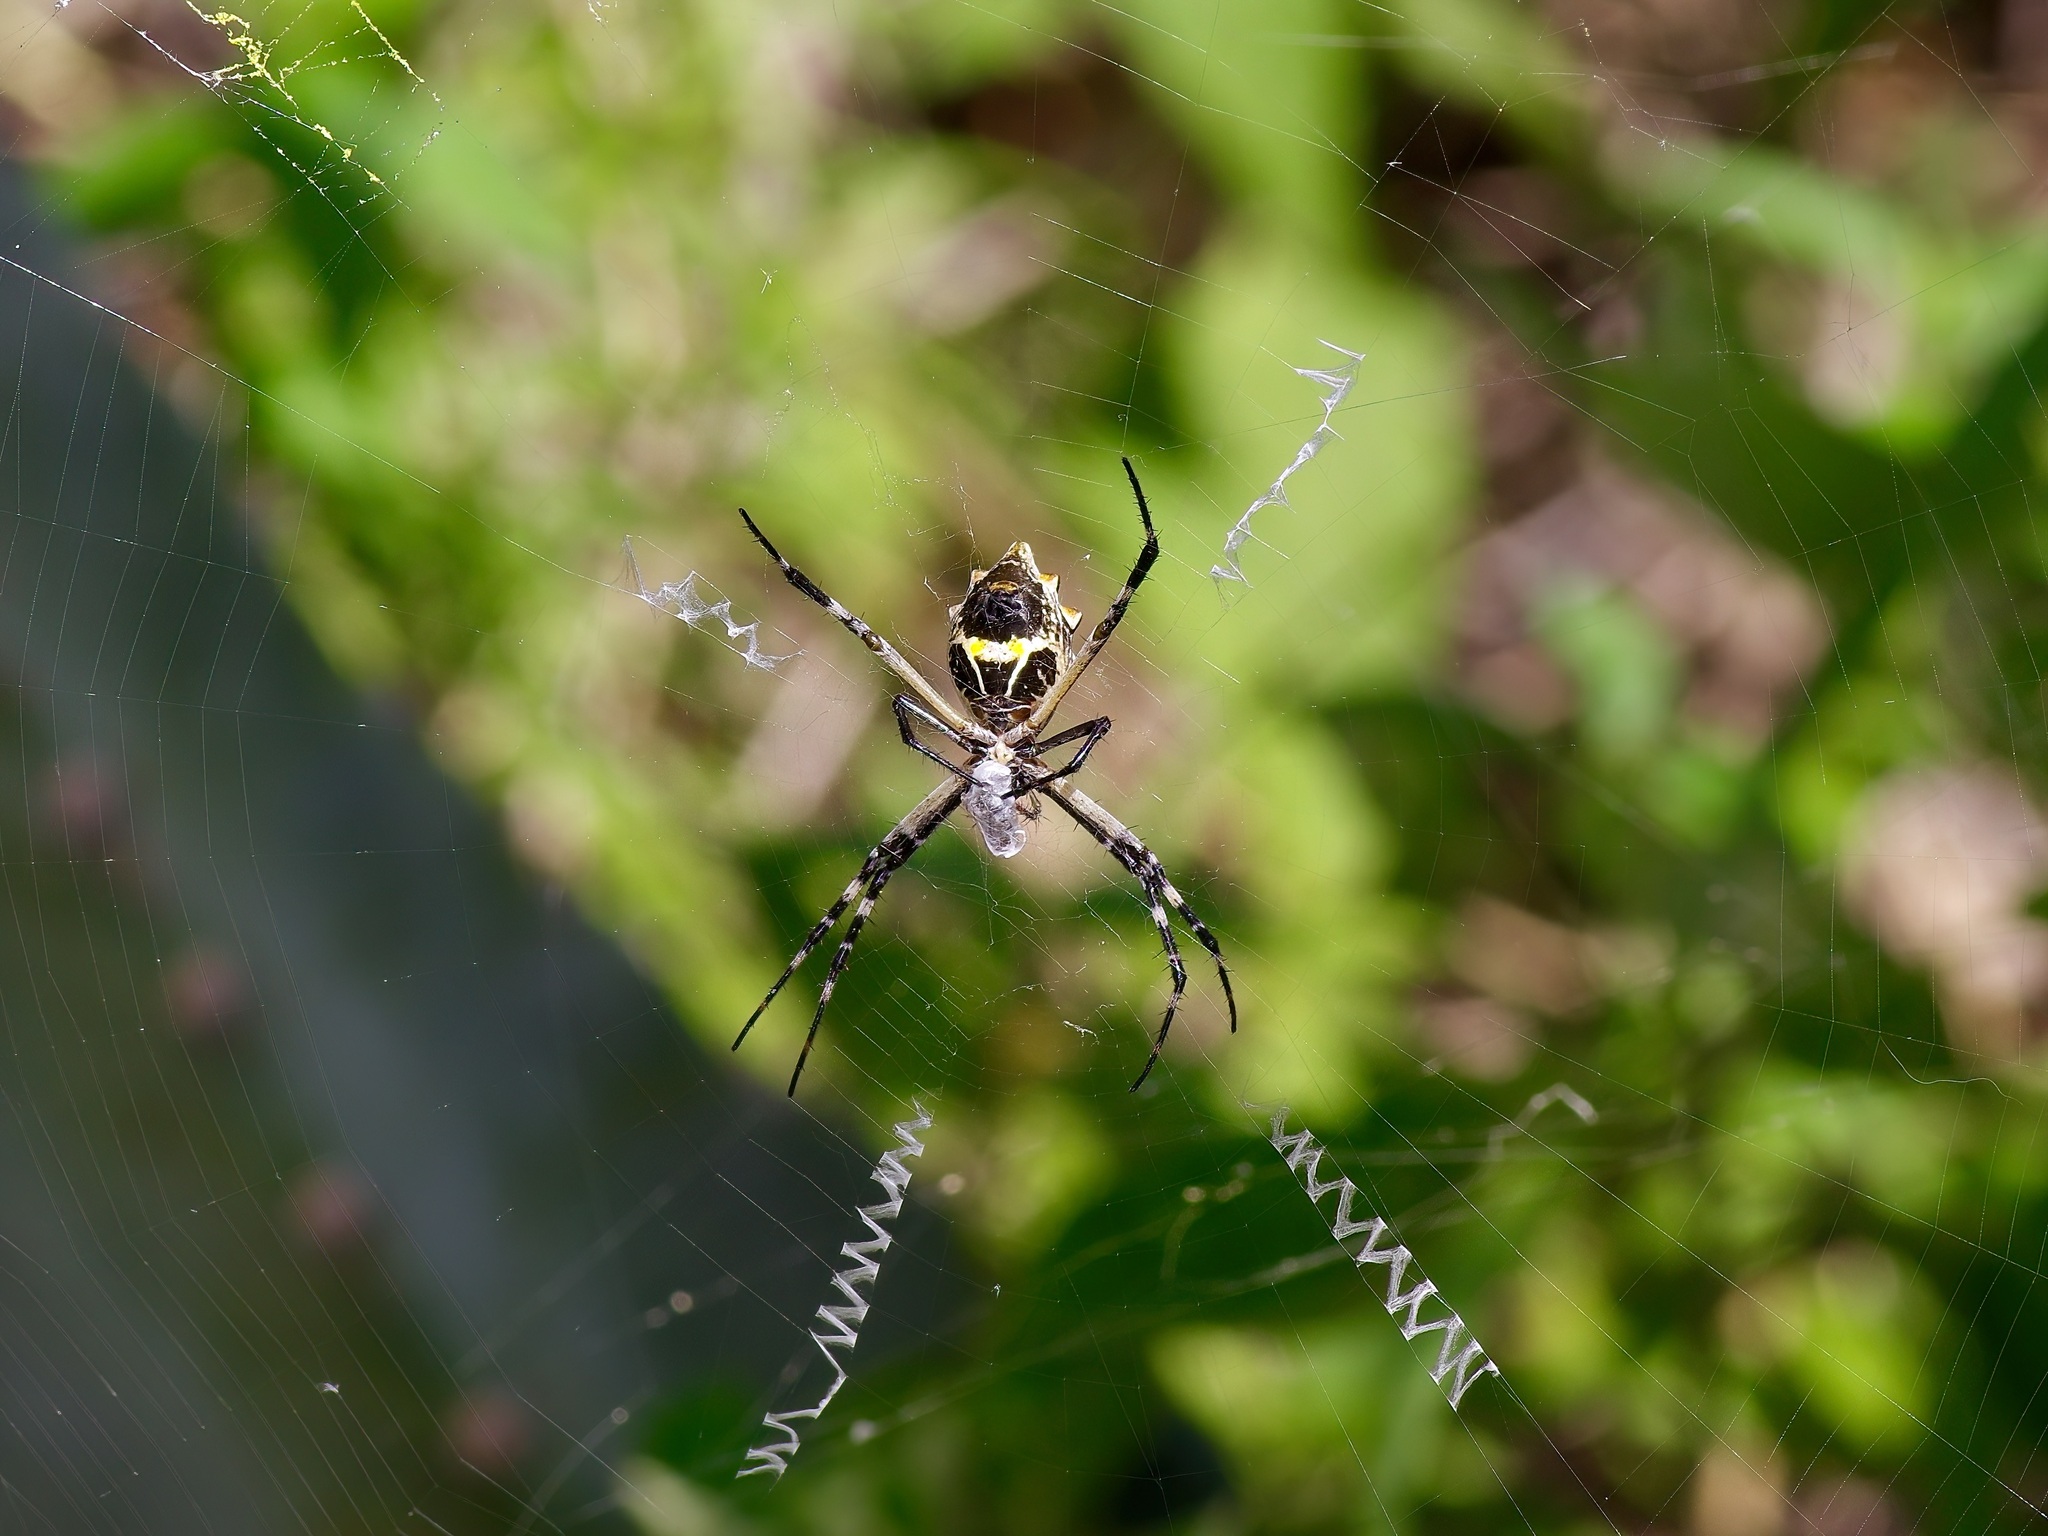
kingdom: Animalia
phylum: Arthropoda
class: Arachnida
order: Araneae
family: Araneidae
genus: Argiope
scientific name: Argiope argentata
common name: Orb weavers
